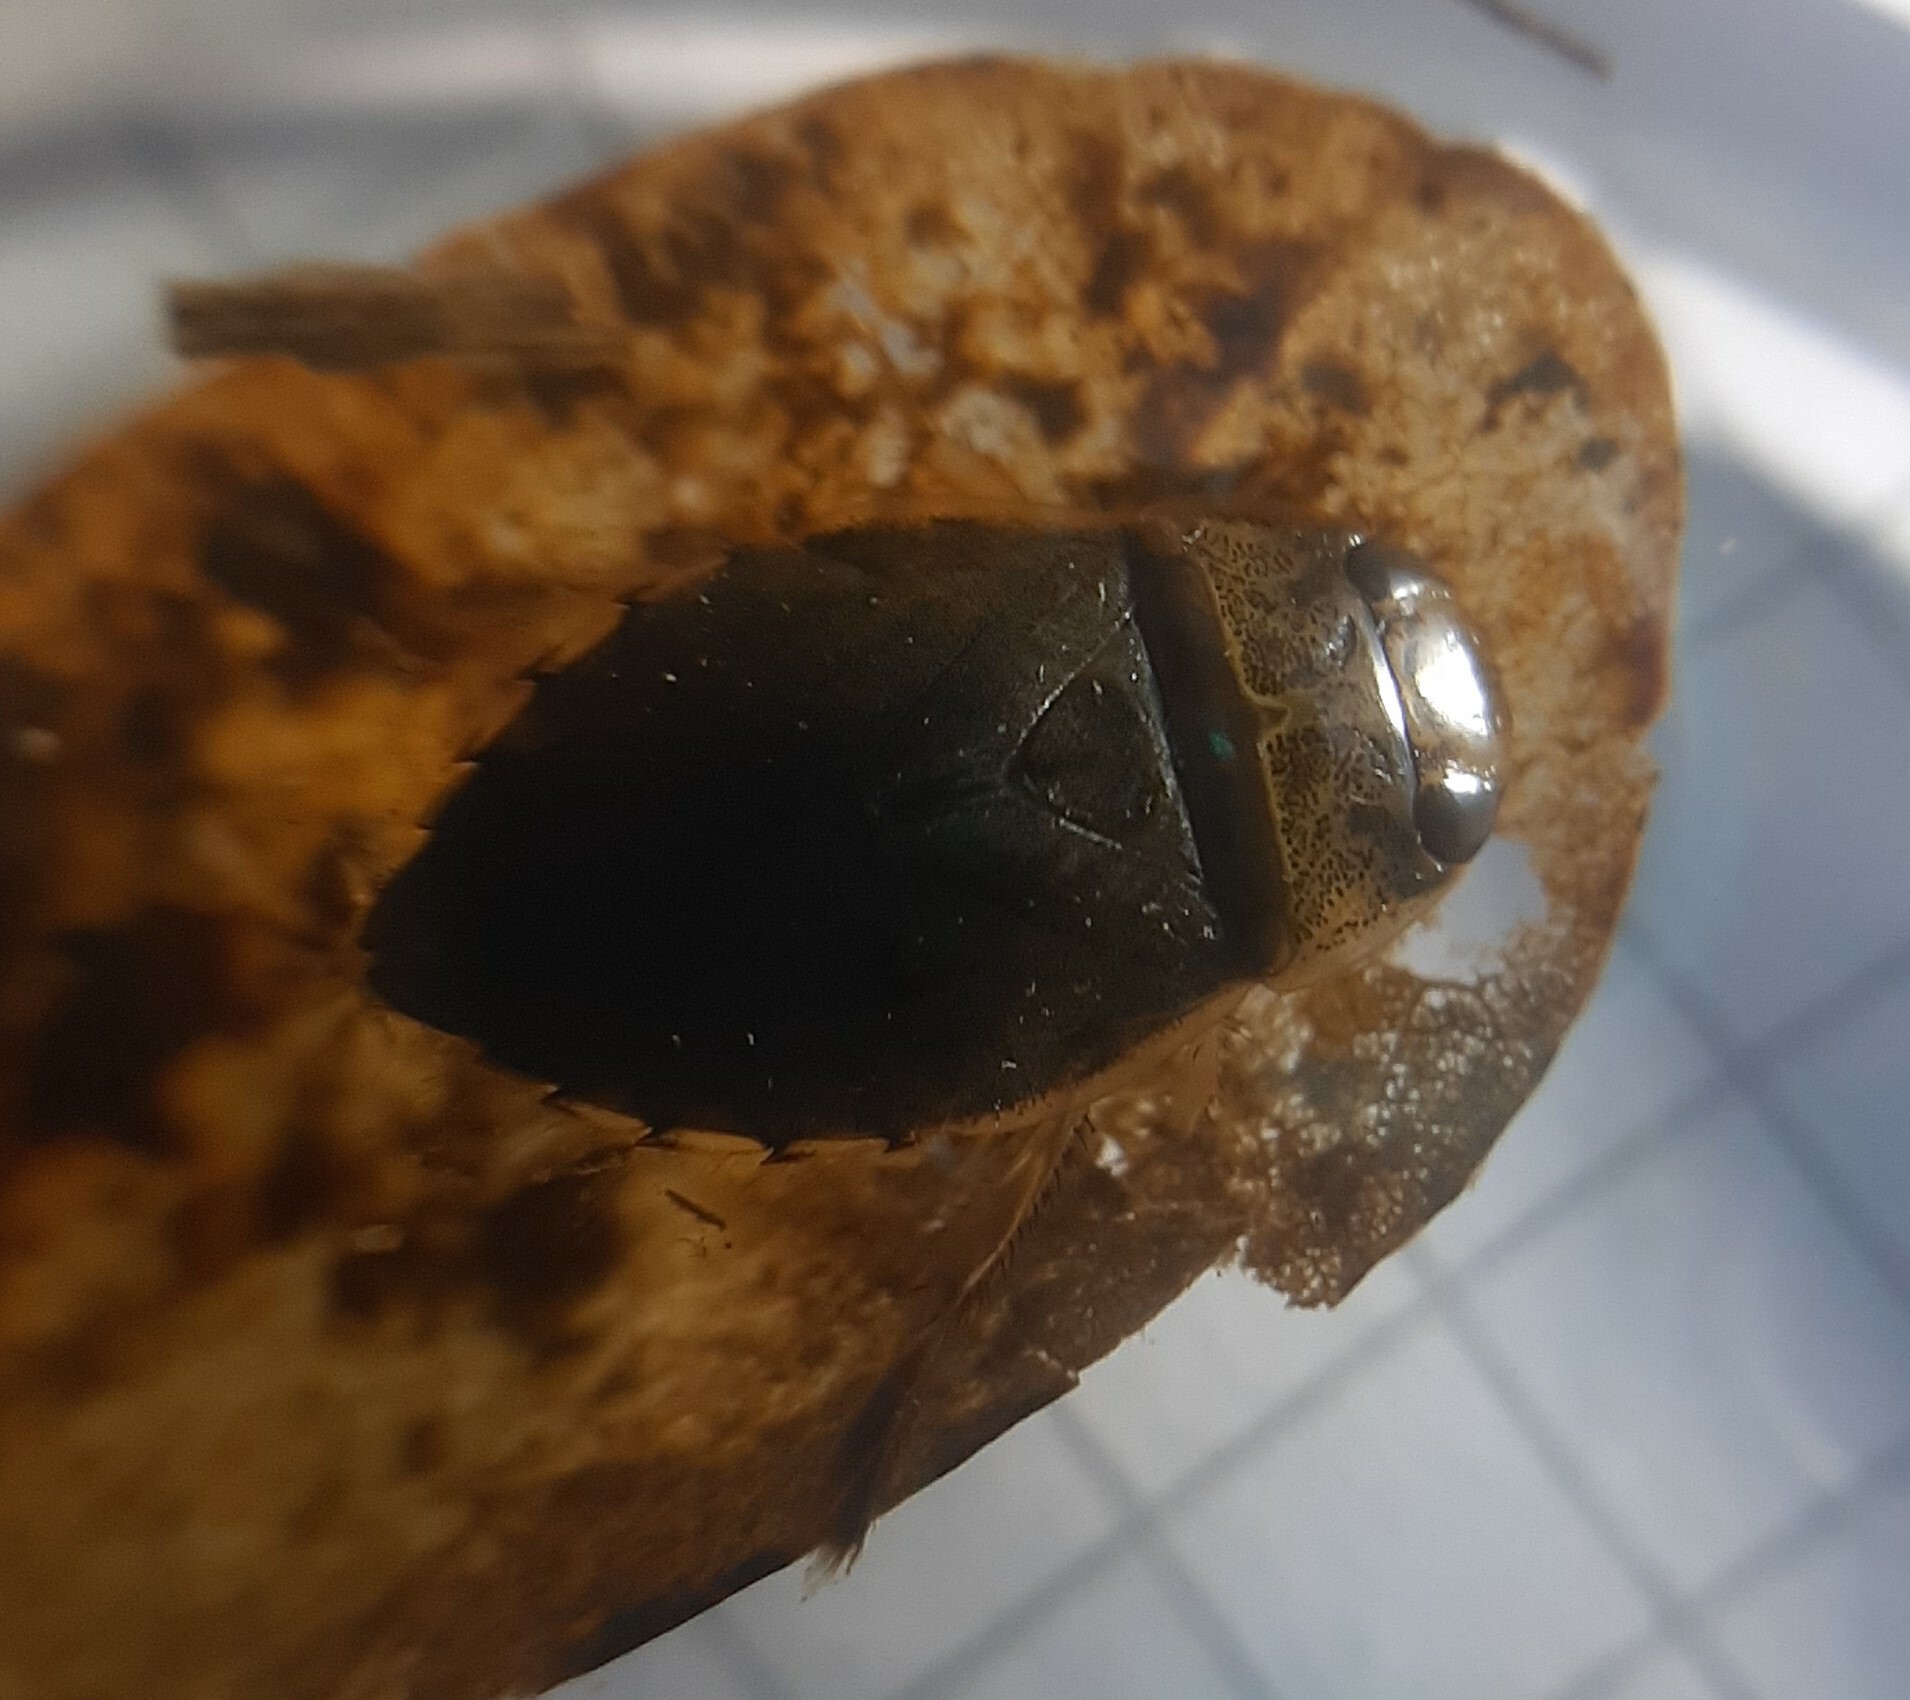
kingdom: Animalia
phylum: Arthropoda
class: Insecta
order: Hemiptera
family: Naucoridae
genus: Ilyocoris
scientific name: Ilyocoris cimicoides
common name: Saucer bugs
